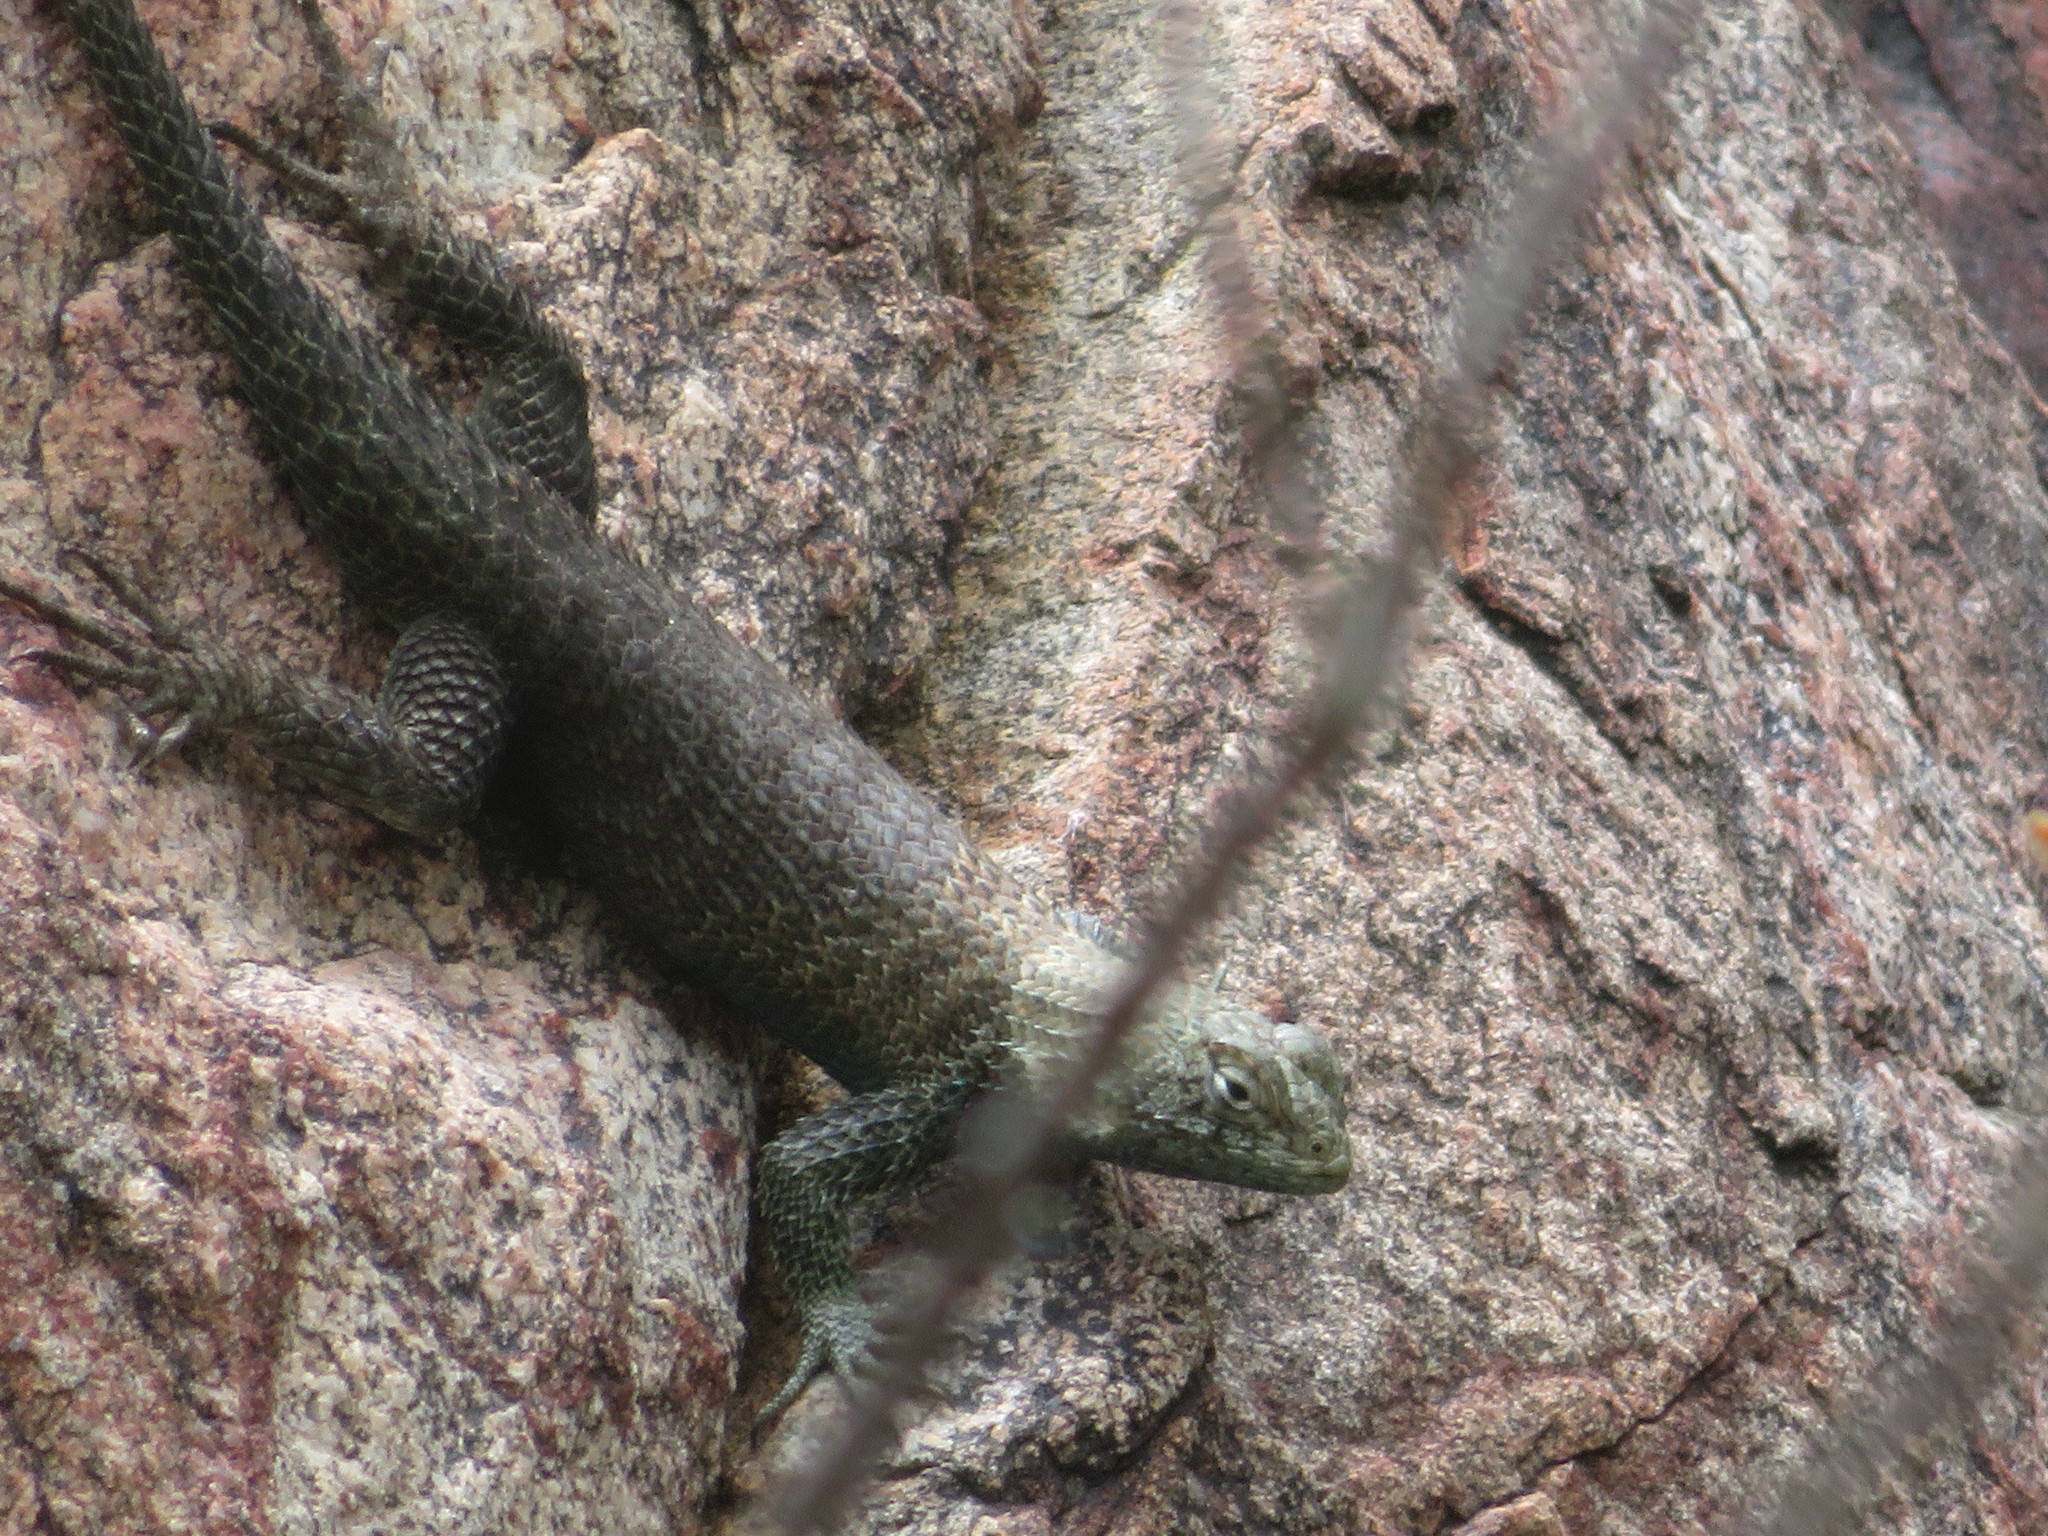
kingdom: Animalia
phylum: Chordata
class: Squamata
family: Phrynosomatidae
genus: Sceloporus
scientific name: Sceloporus orcutti
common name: Granite spiny lizard
